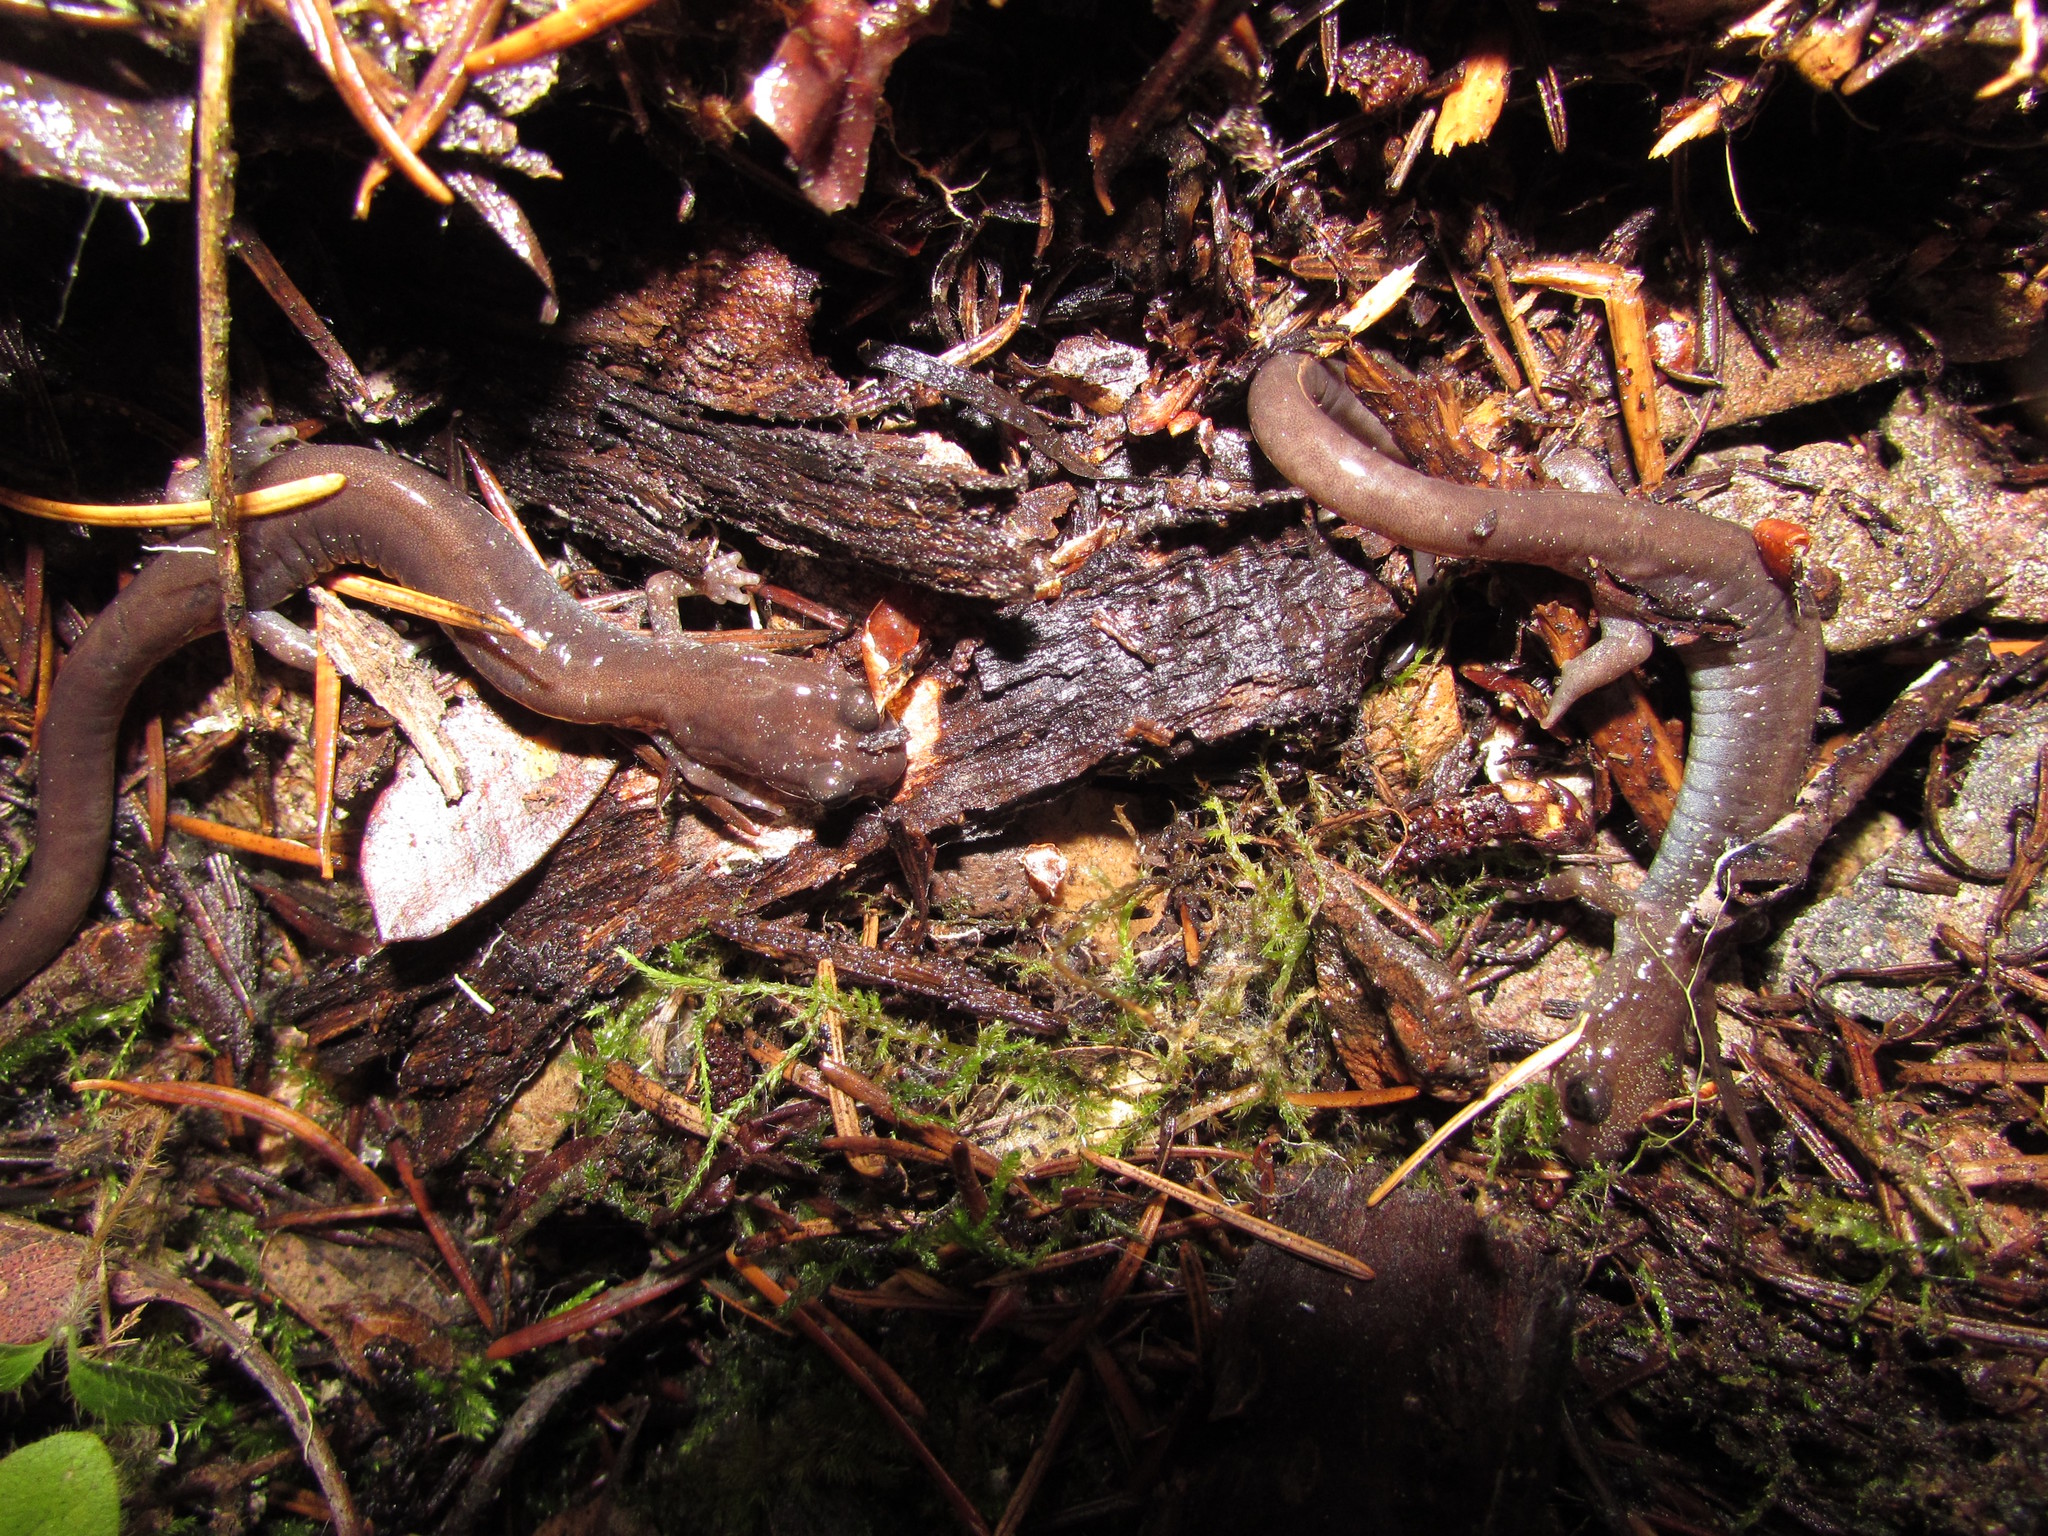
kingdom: Animalia
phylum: Chordata
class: Amphibia
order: Caudata
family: Plethodontidae
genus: Plethodon
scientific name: Plethodon stormi
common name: Siskiyou mountains salamander
